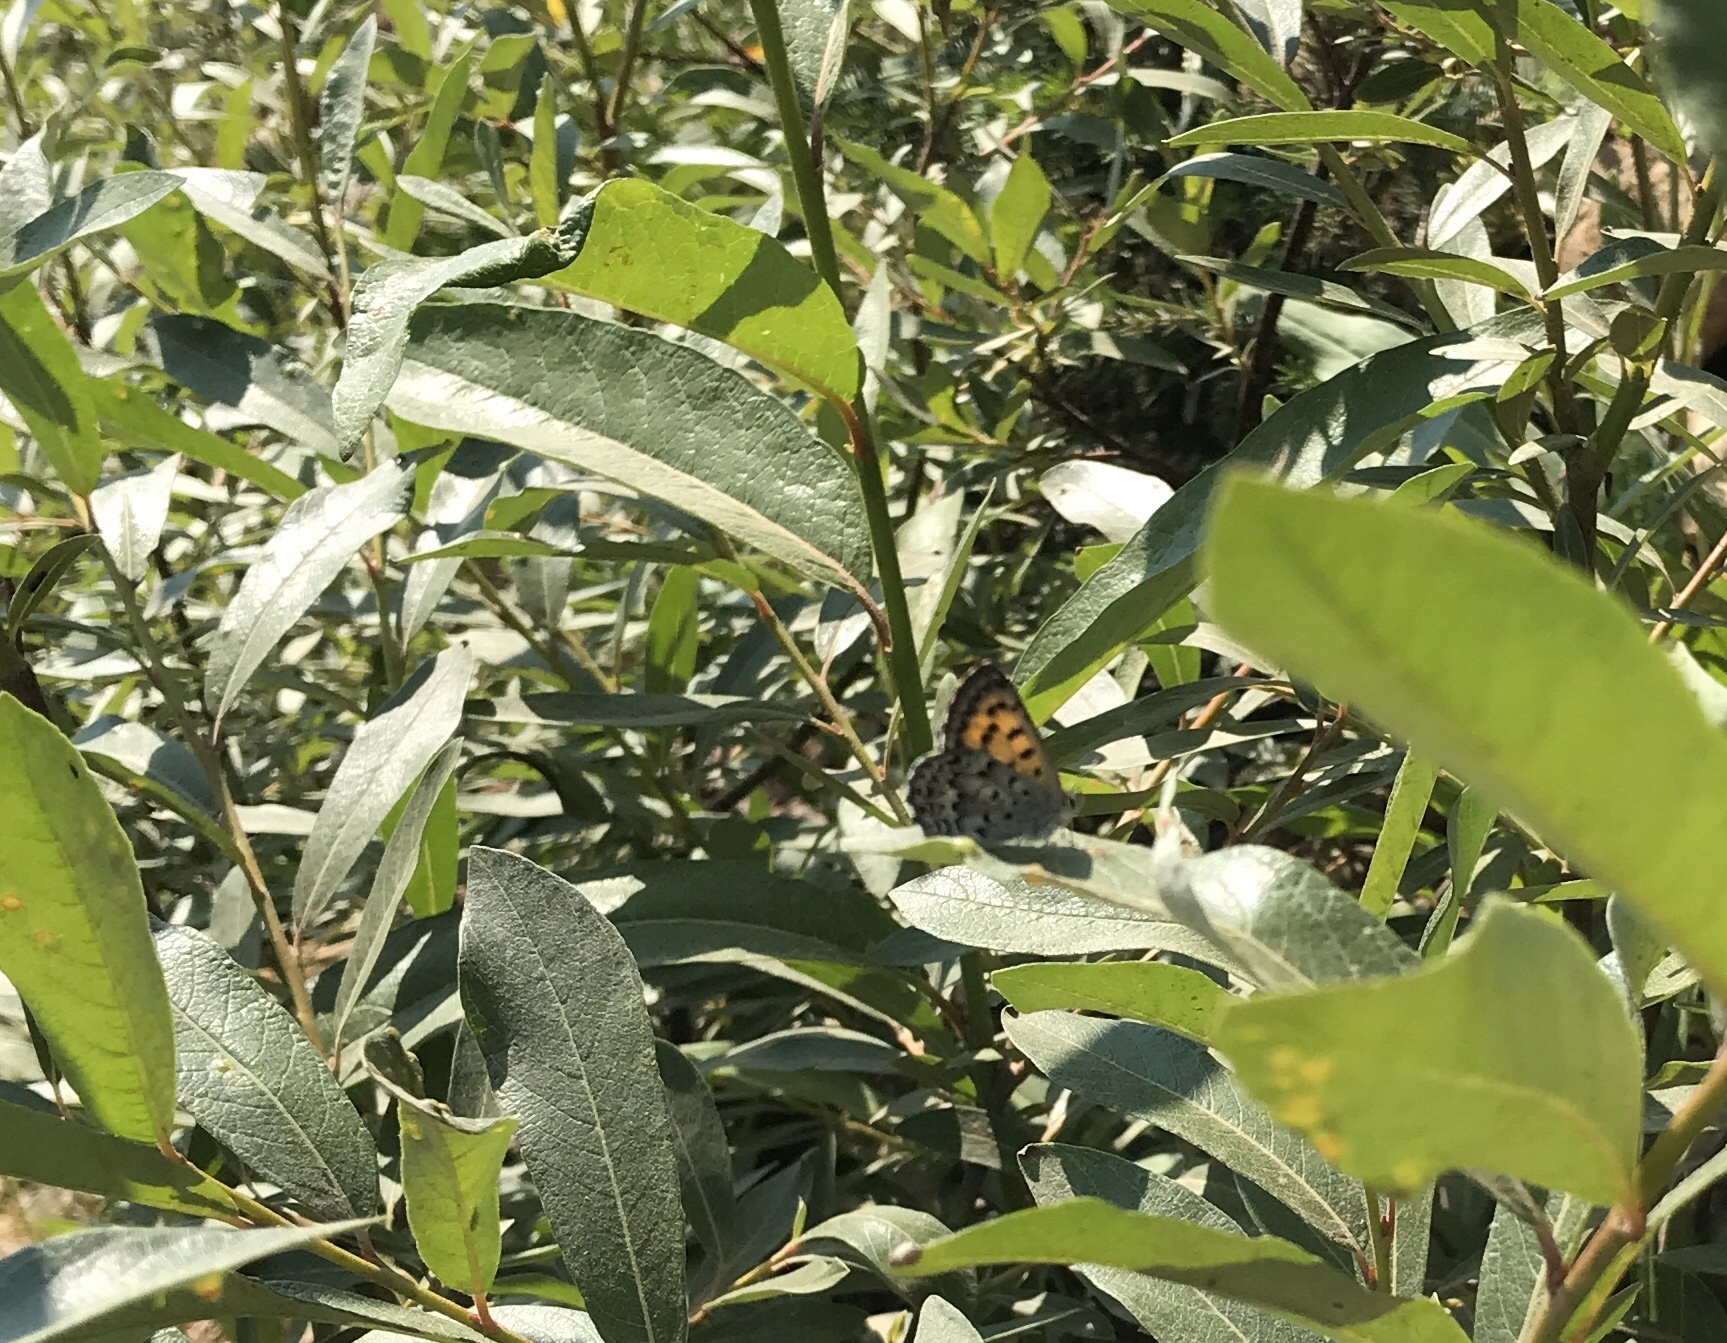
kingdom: Animalia
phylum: Arthropoda
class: Insecta
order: Lepidoptera
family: Lycaenidae
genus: Tharsalea
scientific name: Tharsalea mariposa
